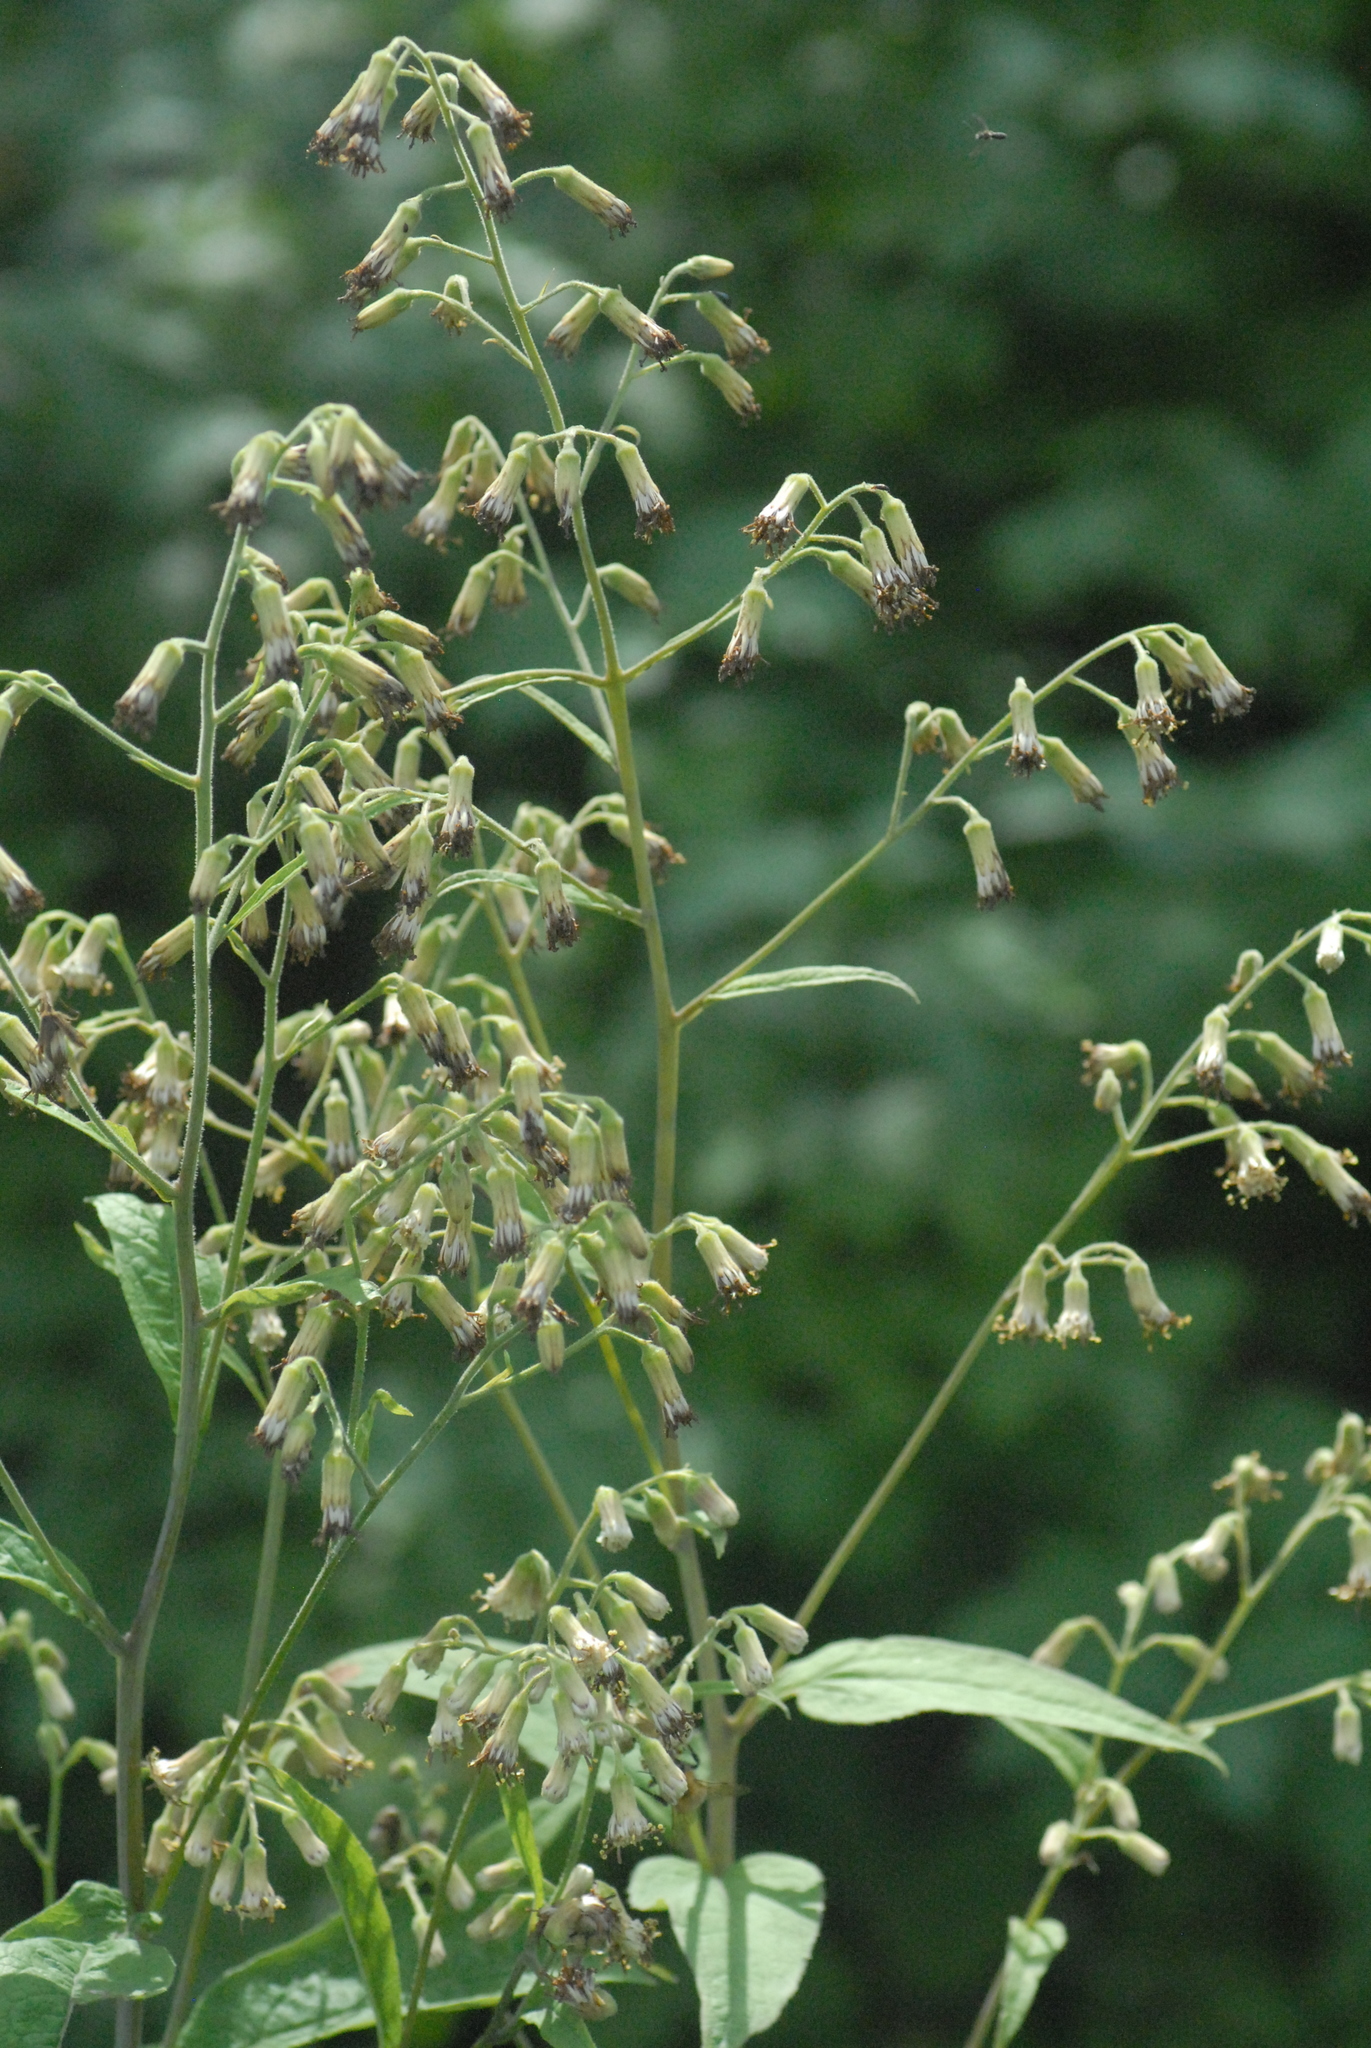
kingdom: Plantae
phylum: Tracheophyta
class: Magnoliopsida
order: Asterales
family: Asteraceae
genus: Parasenecio
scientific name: Parasenecio hastatus
